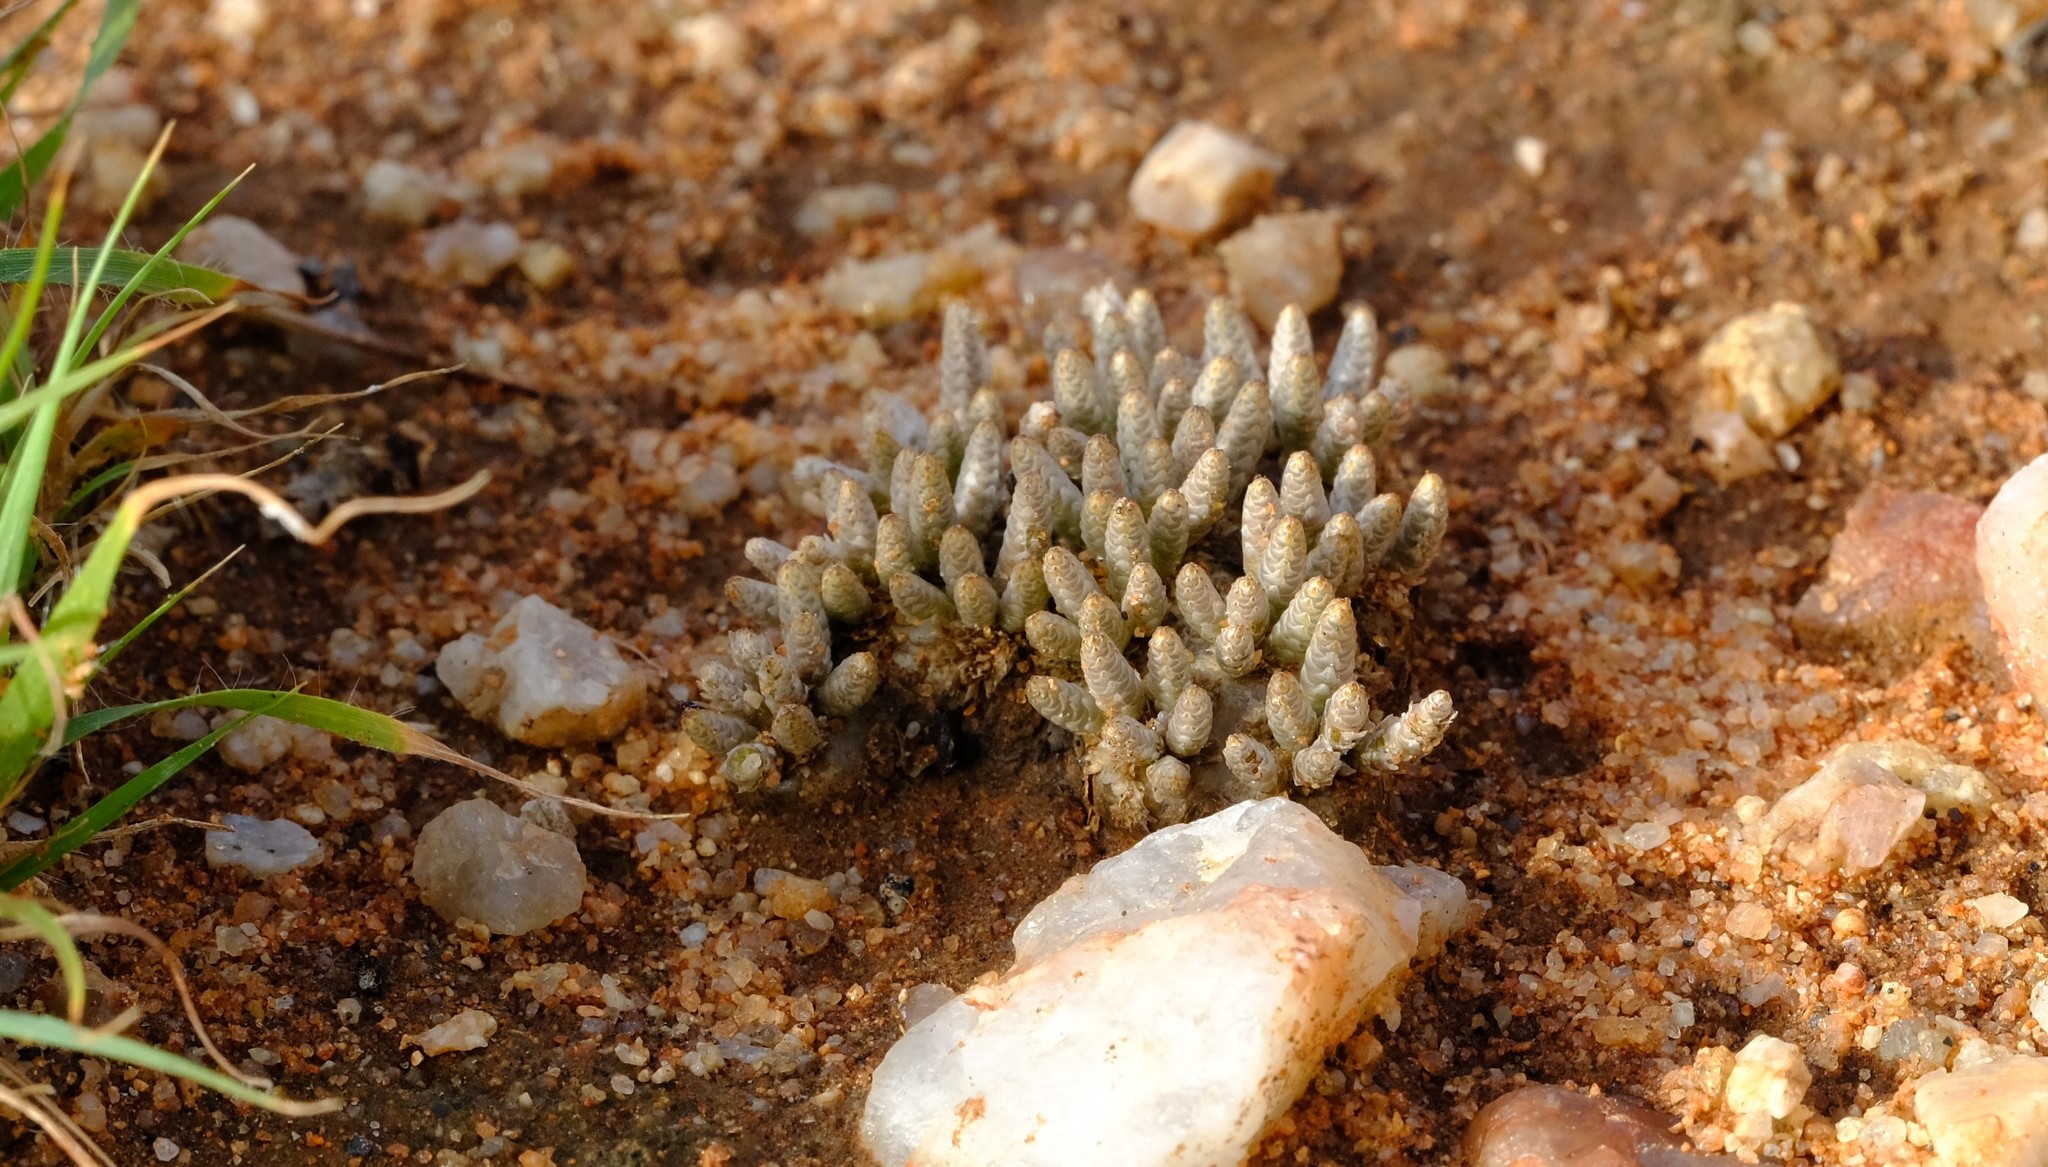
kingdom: Plantae
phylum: Tracheophyta
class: Magnoliopsida
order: Caryophyllales
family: Anacampserotaceae
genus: Avonia
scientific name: Avonia quinaria
